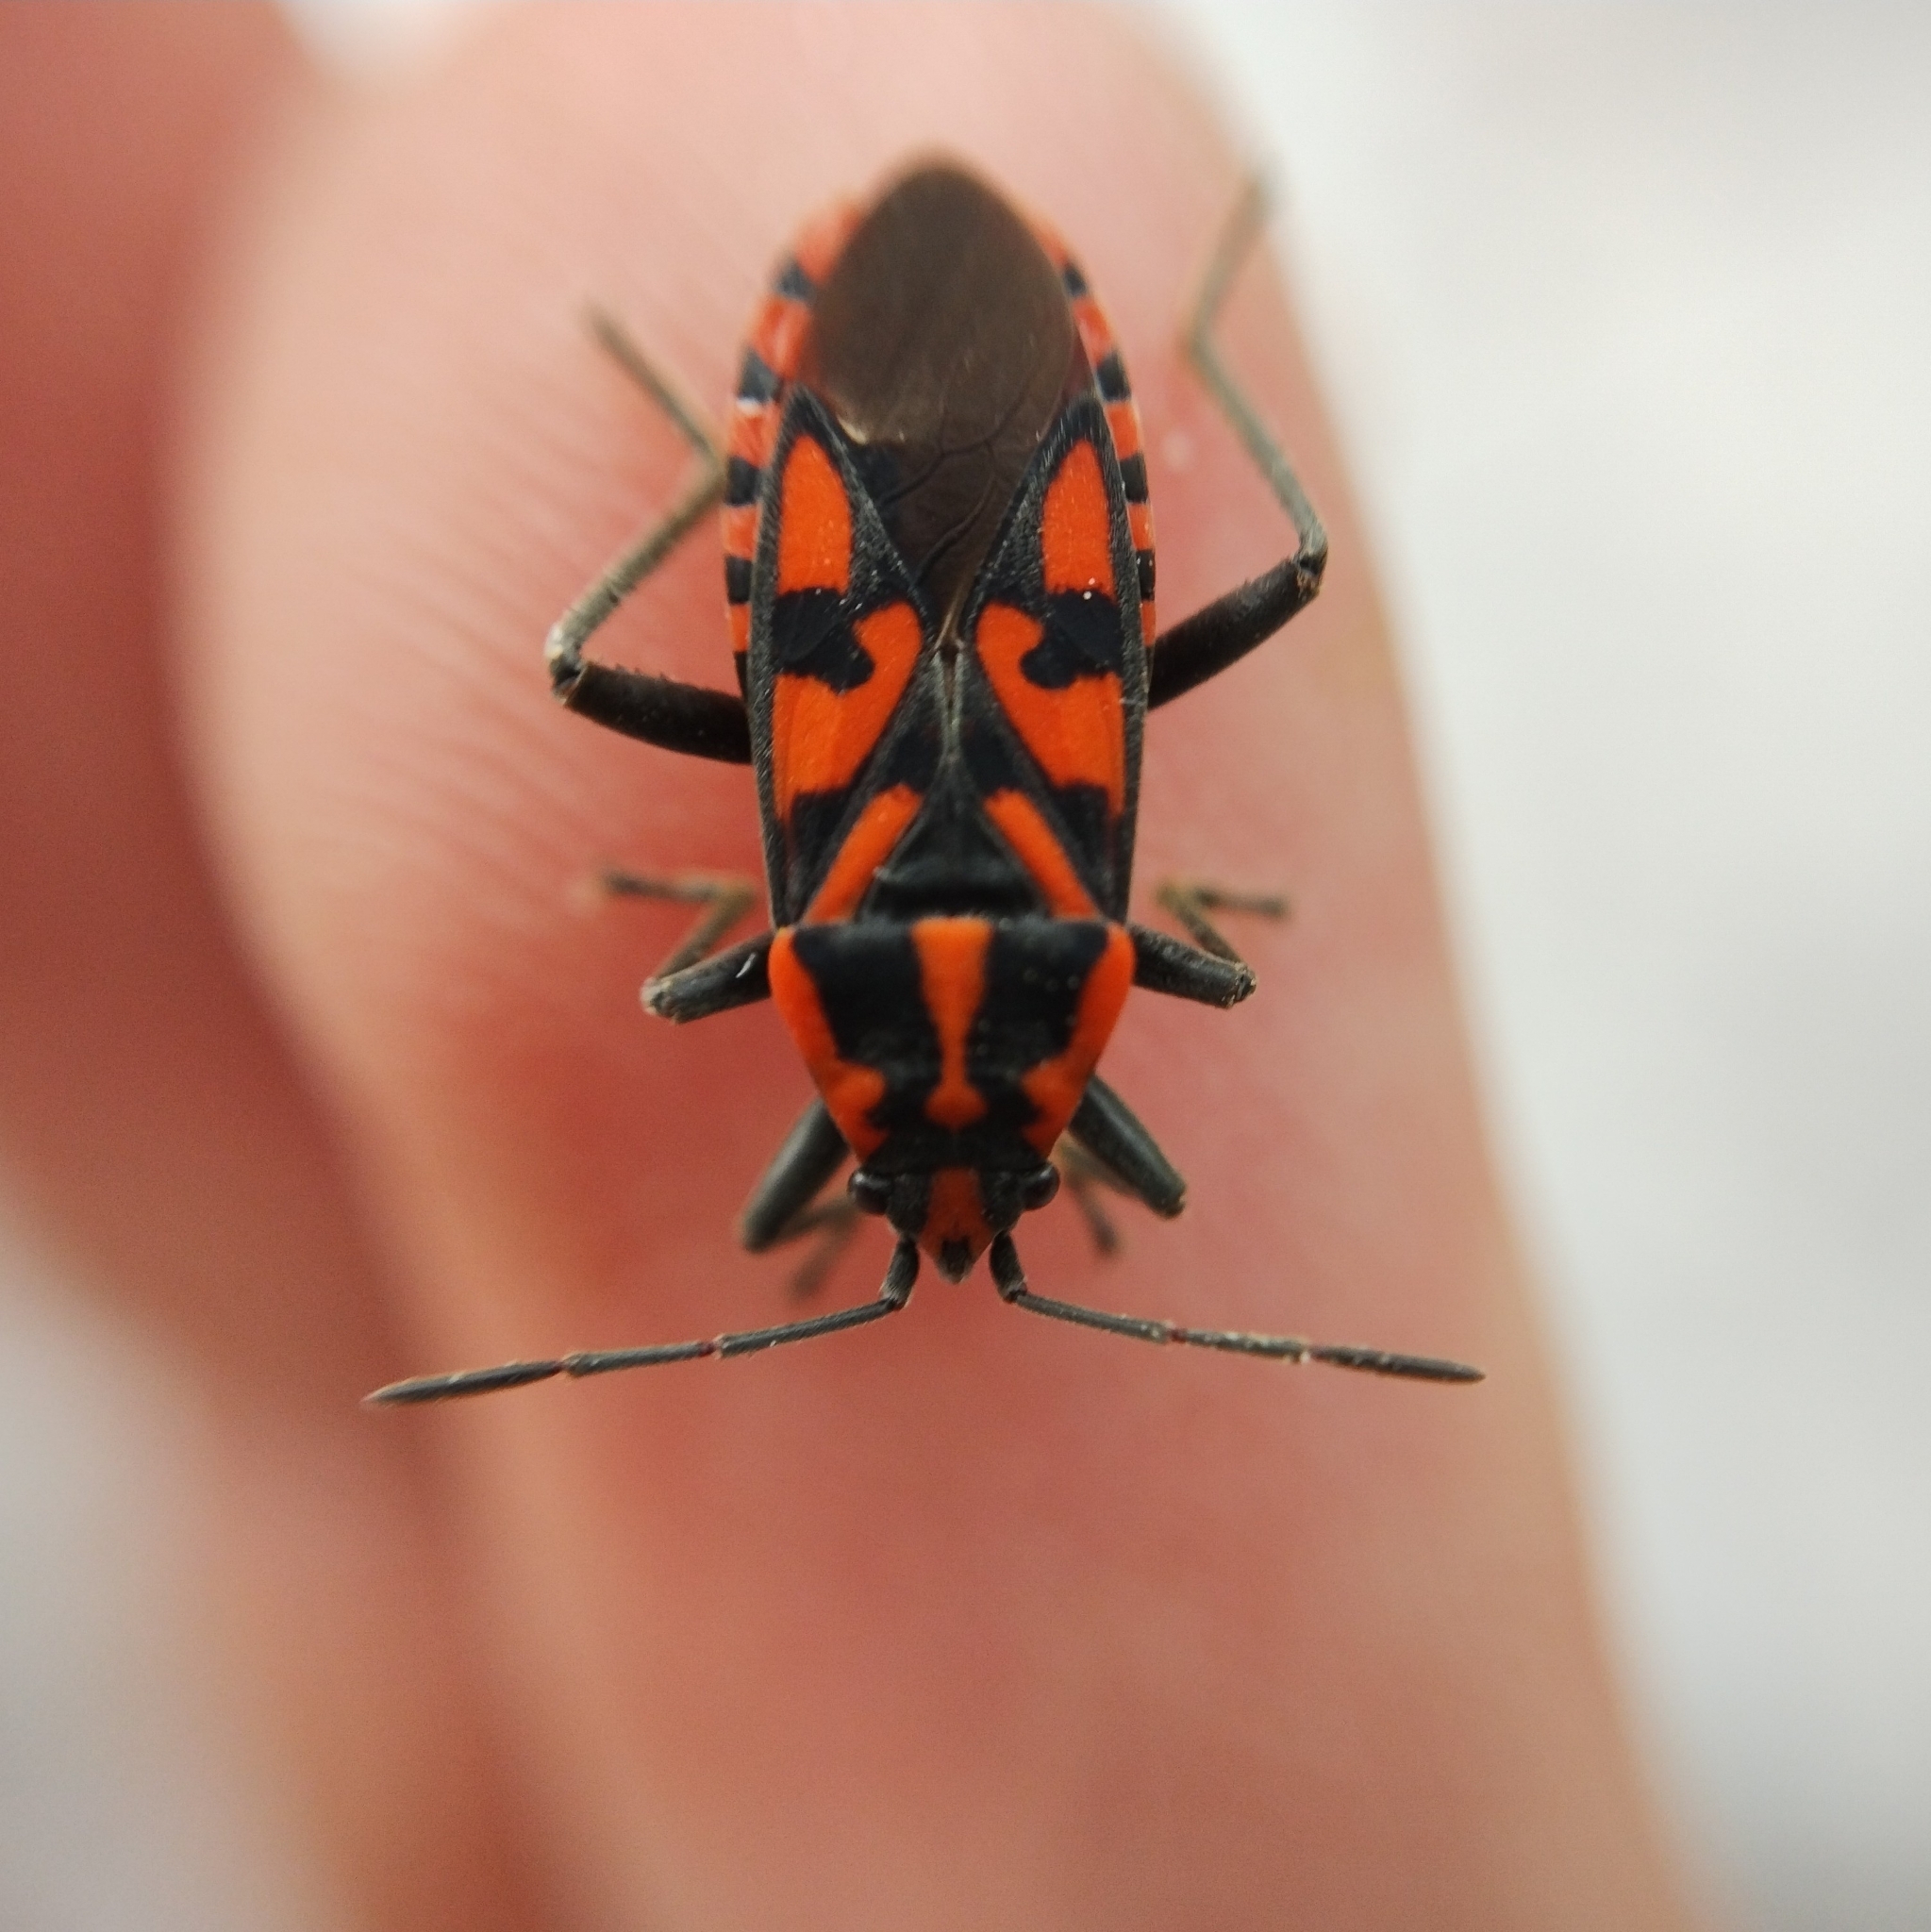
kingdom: Animalia
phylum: Arthropoda
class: Insecta
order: Hemiptera
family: Lygaeidae
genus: Spilostethus
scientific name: Spilostethus saxatilis
